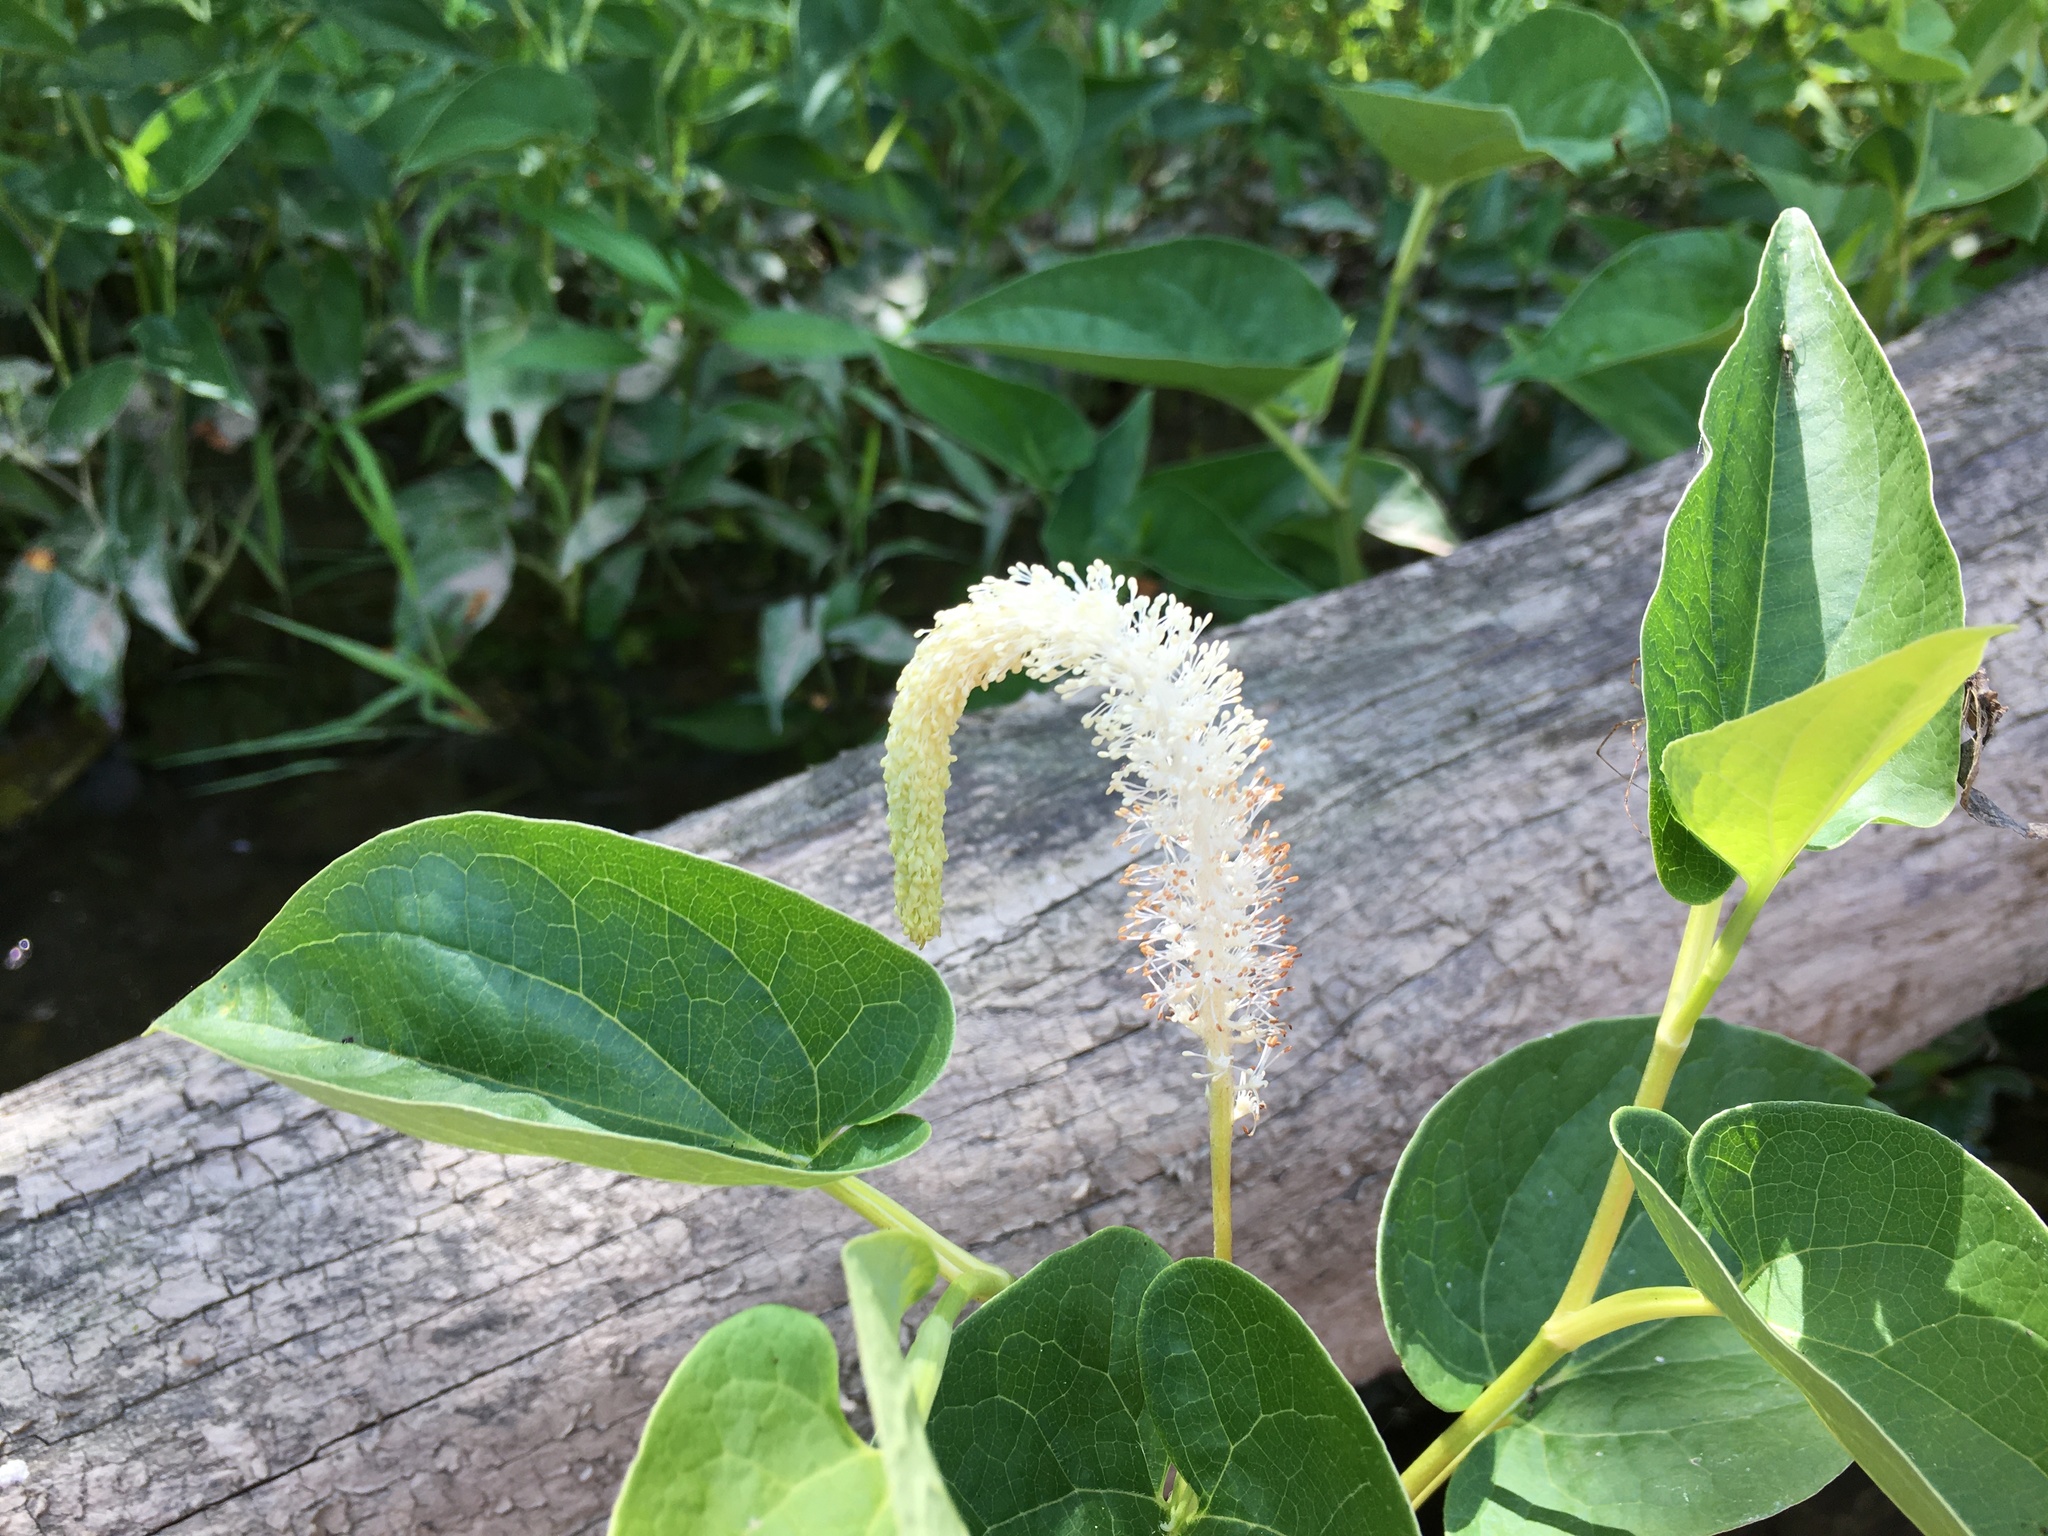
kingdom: Plantae
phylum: Tracheophyta
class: Magnoliopsida
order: Piperales
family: Saururaceae
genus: Saururus
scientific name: Saururus cernuus
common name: Lizard's-tail
